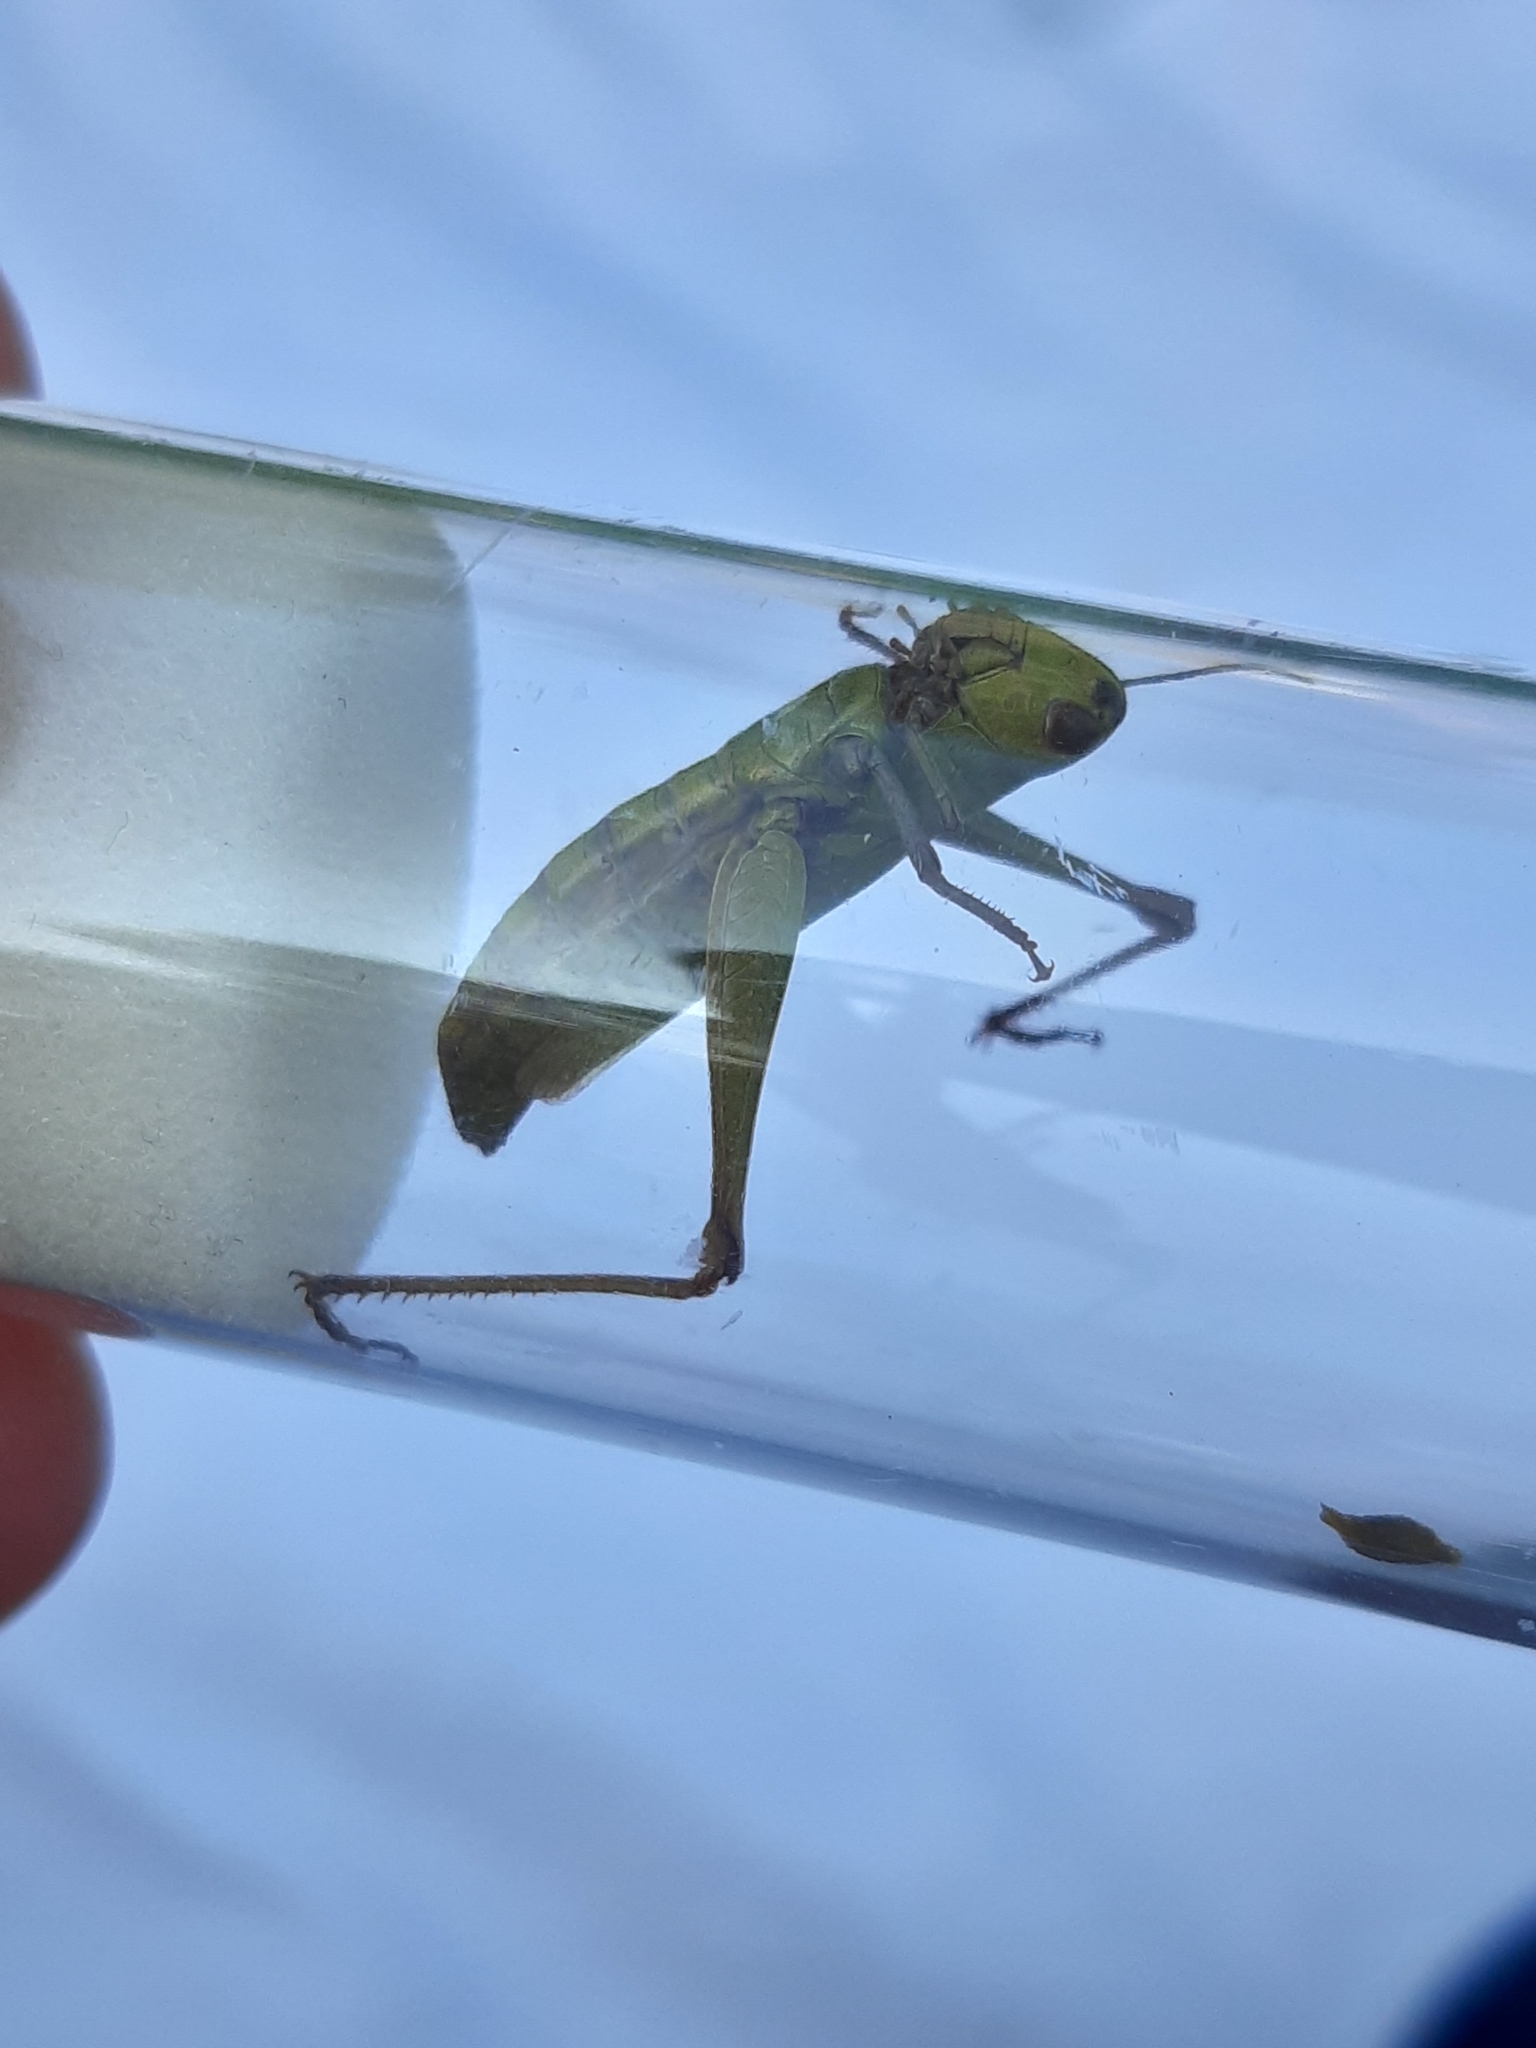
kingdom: Animalia
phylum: Arthropoda
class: Insecta
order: Orthoptera
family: Acrididae
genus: Chorthippus
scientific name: Chorthippus dorsatus
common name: Steppe grasshopper
